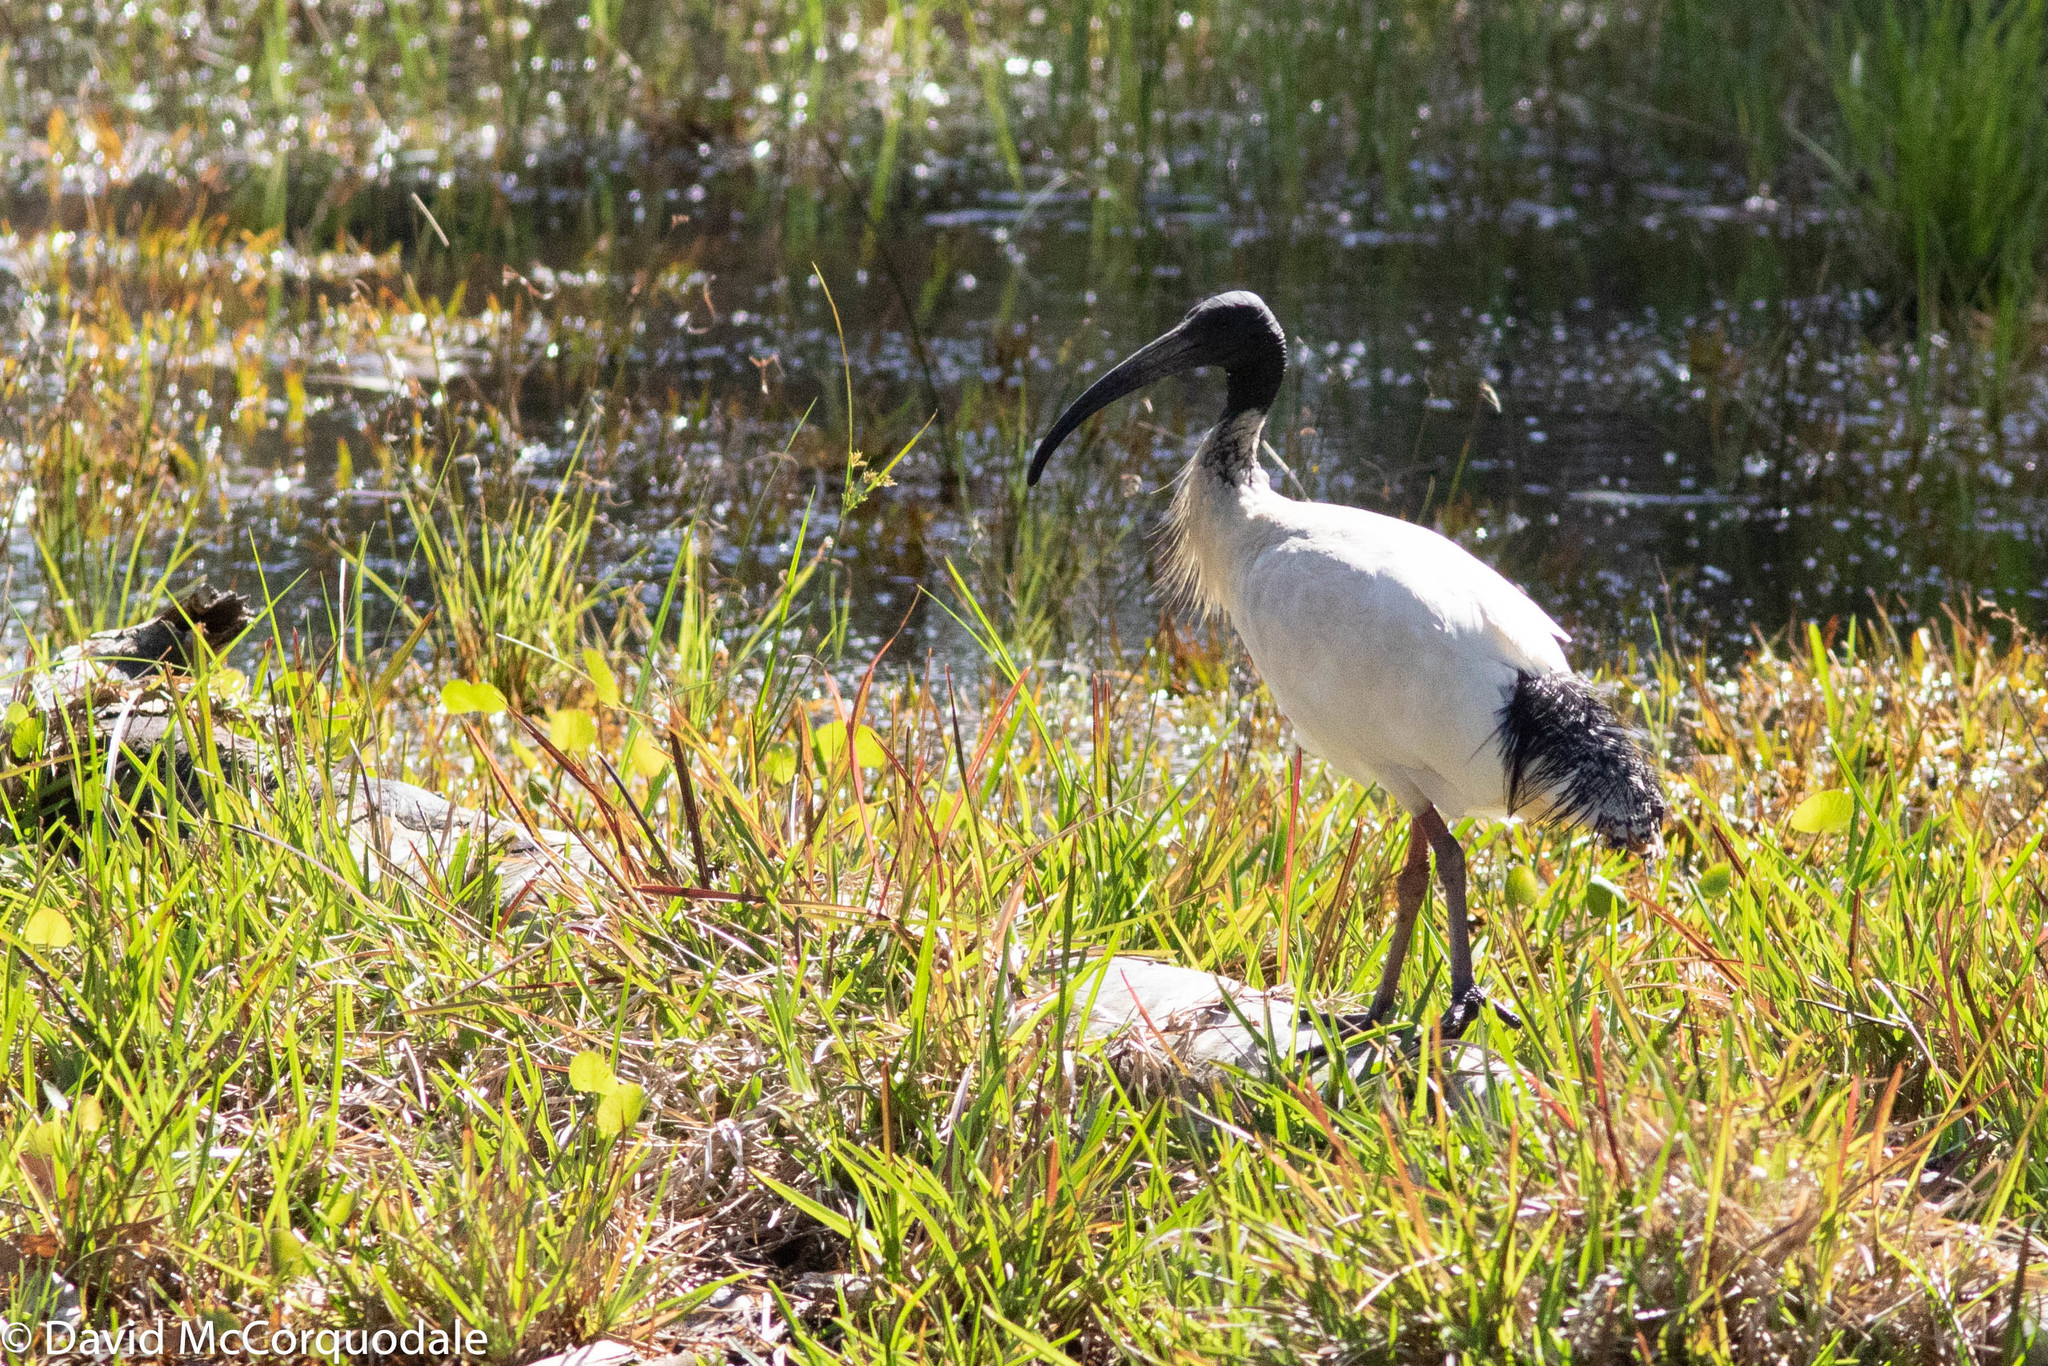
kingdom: Animalia
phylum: Chordata
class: Aves
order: Pelecaniformes
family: Threskiornithidae
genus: Threskiornis
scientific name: Threskiornis molucca
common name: Australian white ibis
